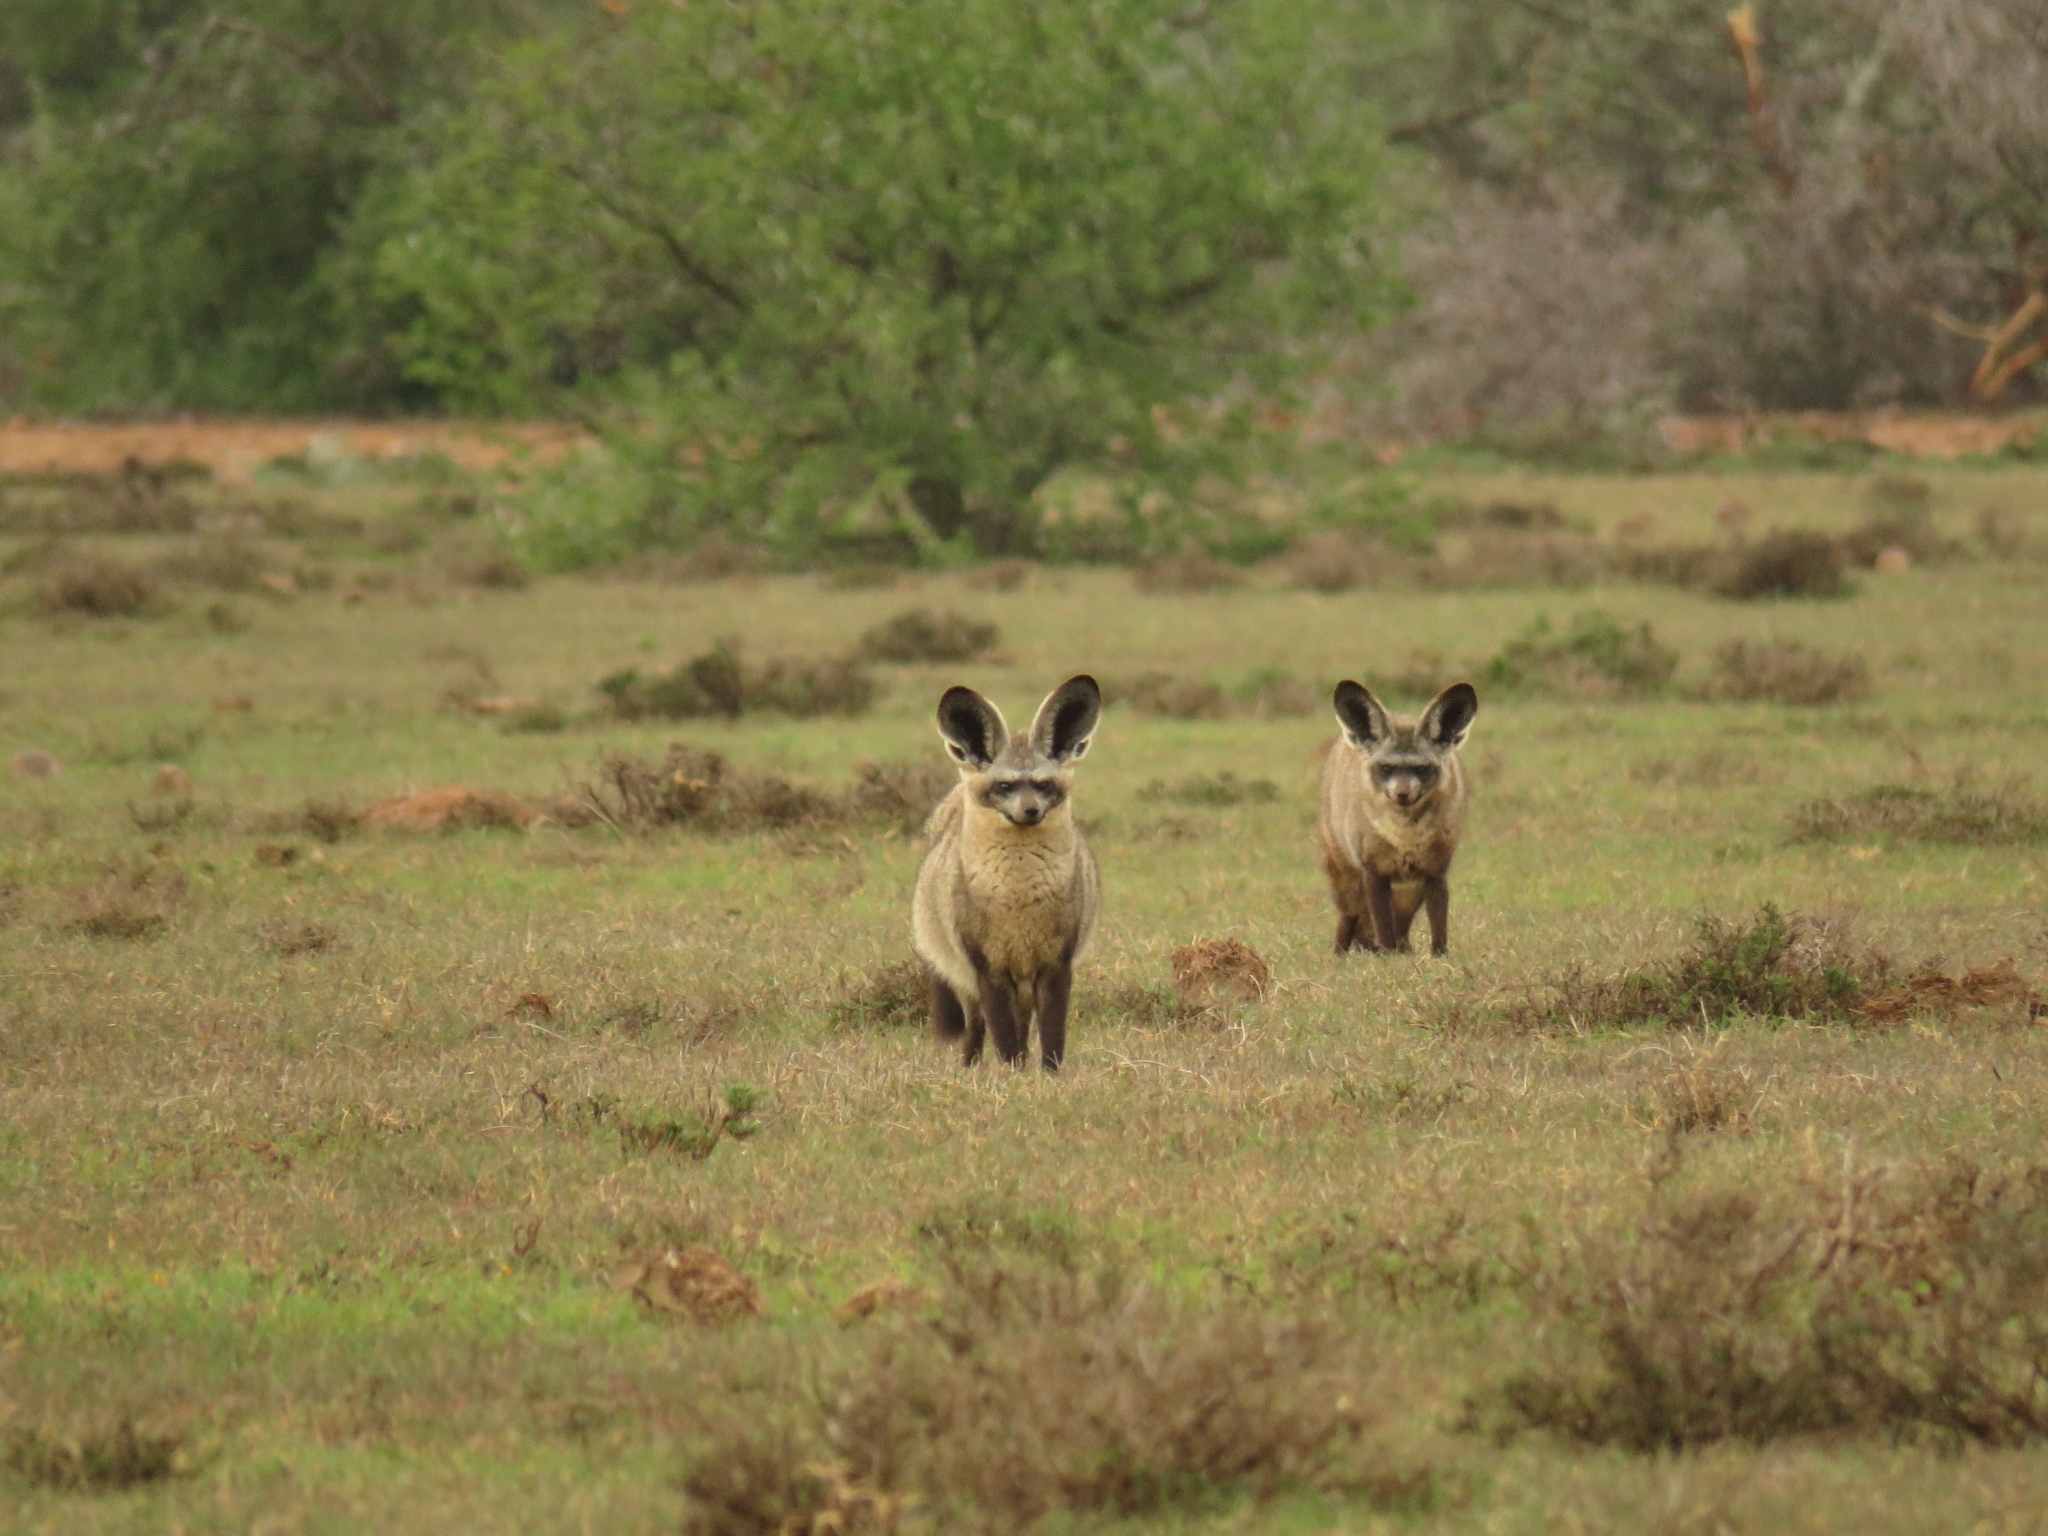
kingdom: Animalia
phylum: Chordata
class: Mammalia
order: Carnivora
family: Canidae
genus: Otocyon
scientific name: Otocyon megalotis
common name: Bat-eared fox
